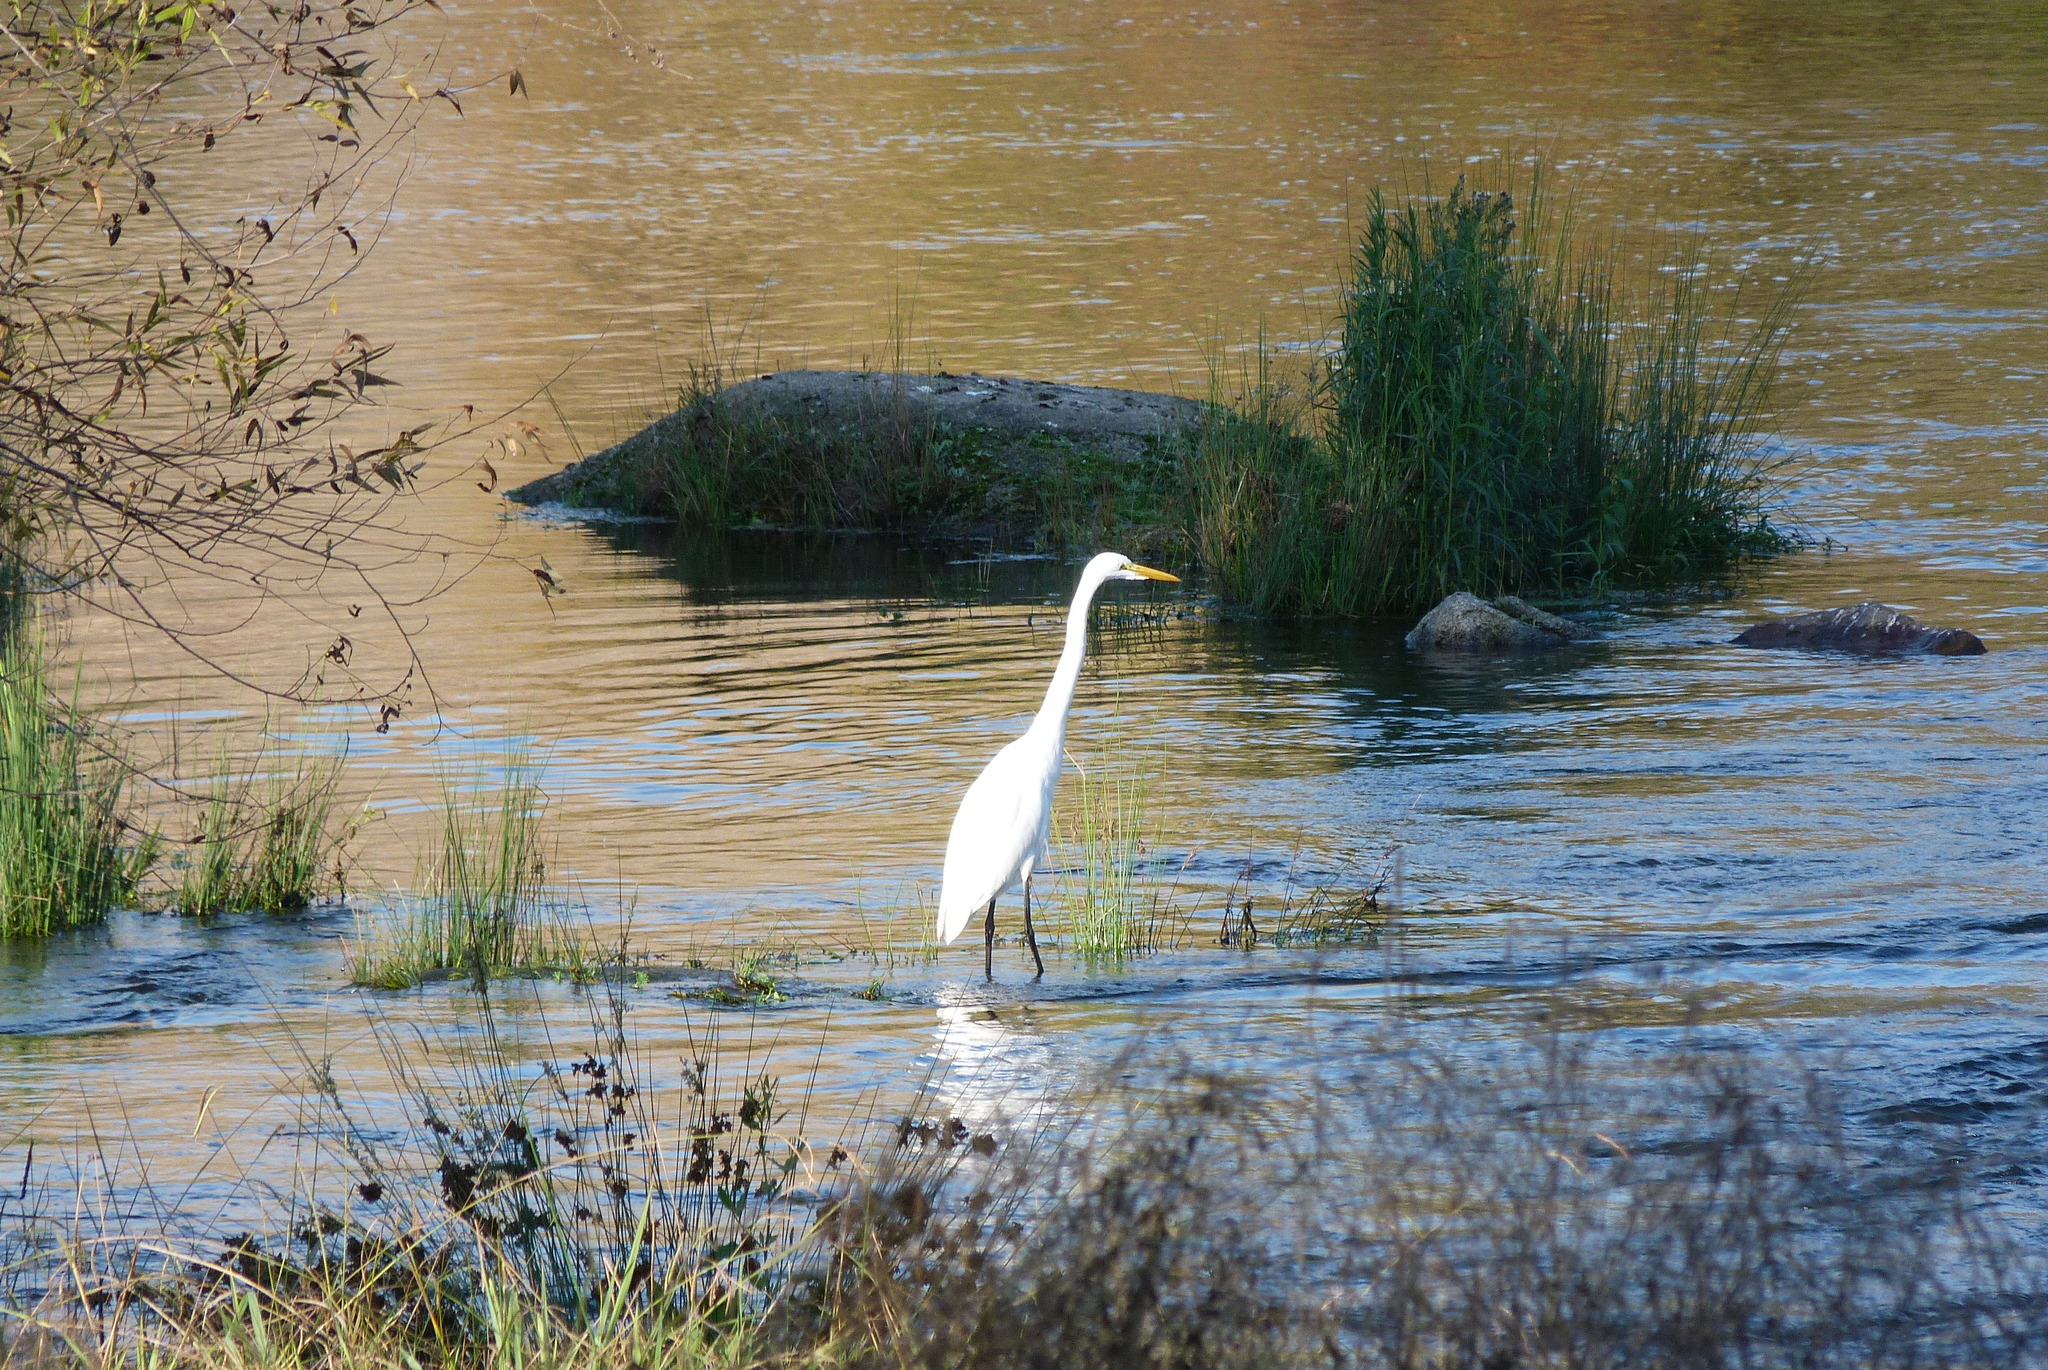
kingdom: Animalia
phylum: Chordata
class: Aves
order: Pelecaniformes
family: Ardeidae
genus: Ardea
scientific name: Ardea alba
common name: Great egret
